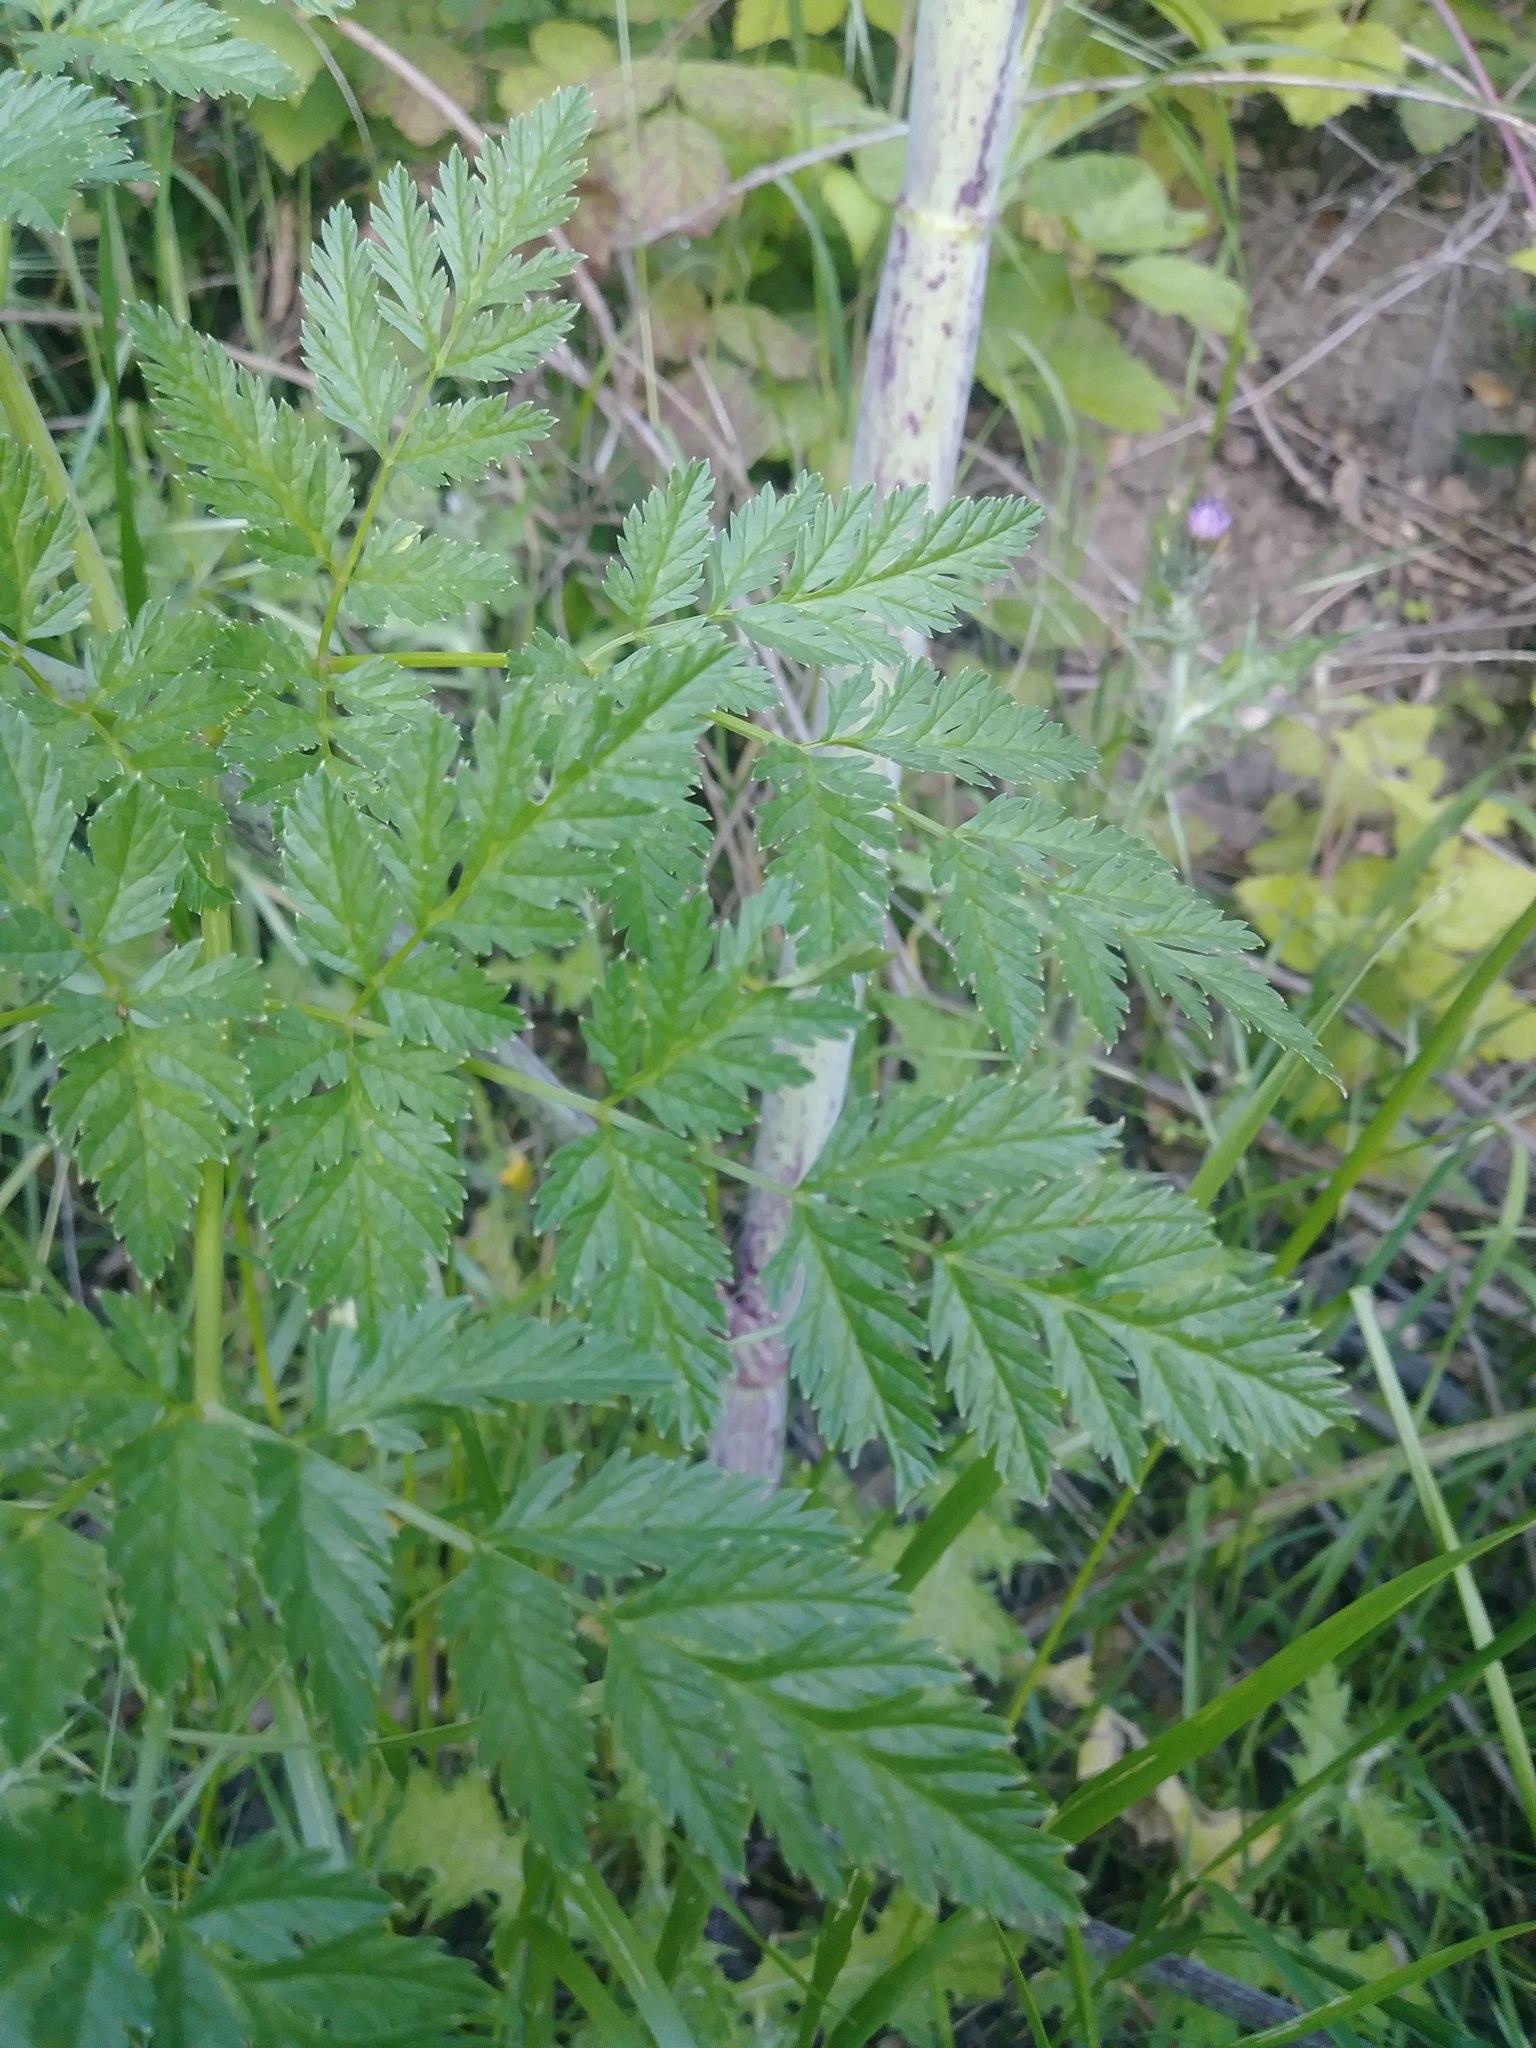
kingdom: Plantae
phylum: Tracheophyta
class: Magnoliopsida
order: Apiales
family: Apiaceae
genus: Conium
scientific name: Conium maculatum
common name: Hemlock
